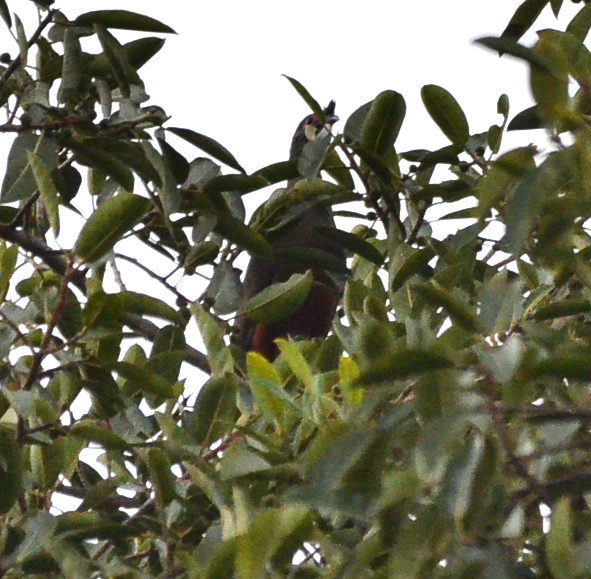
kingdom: Animalia
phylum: Chordata
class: Aves
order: Galliformes
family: Cracidae
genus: Ortalis
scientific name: Ortalis wagleri
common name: Rufous-bellied chachalaca
